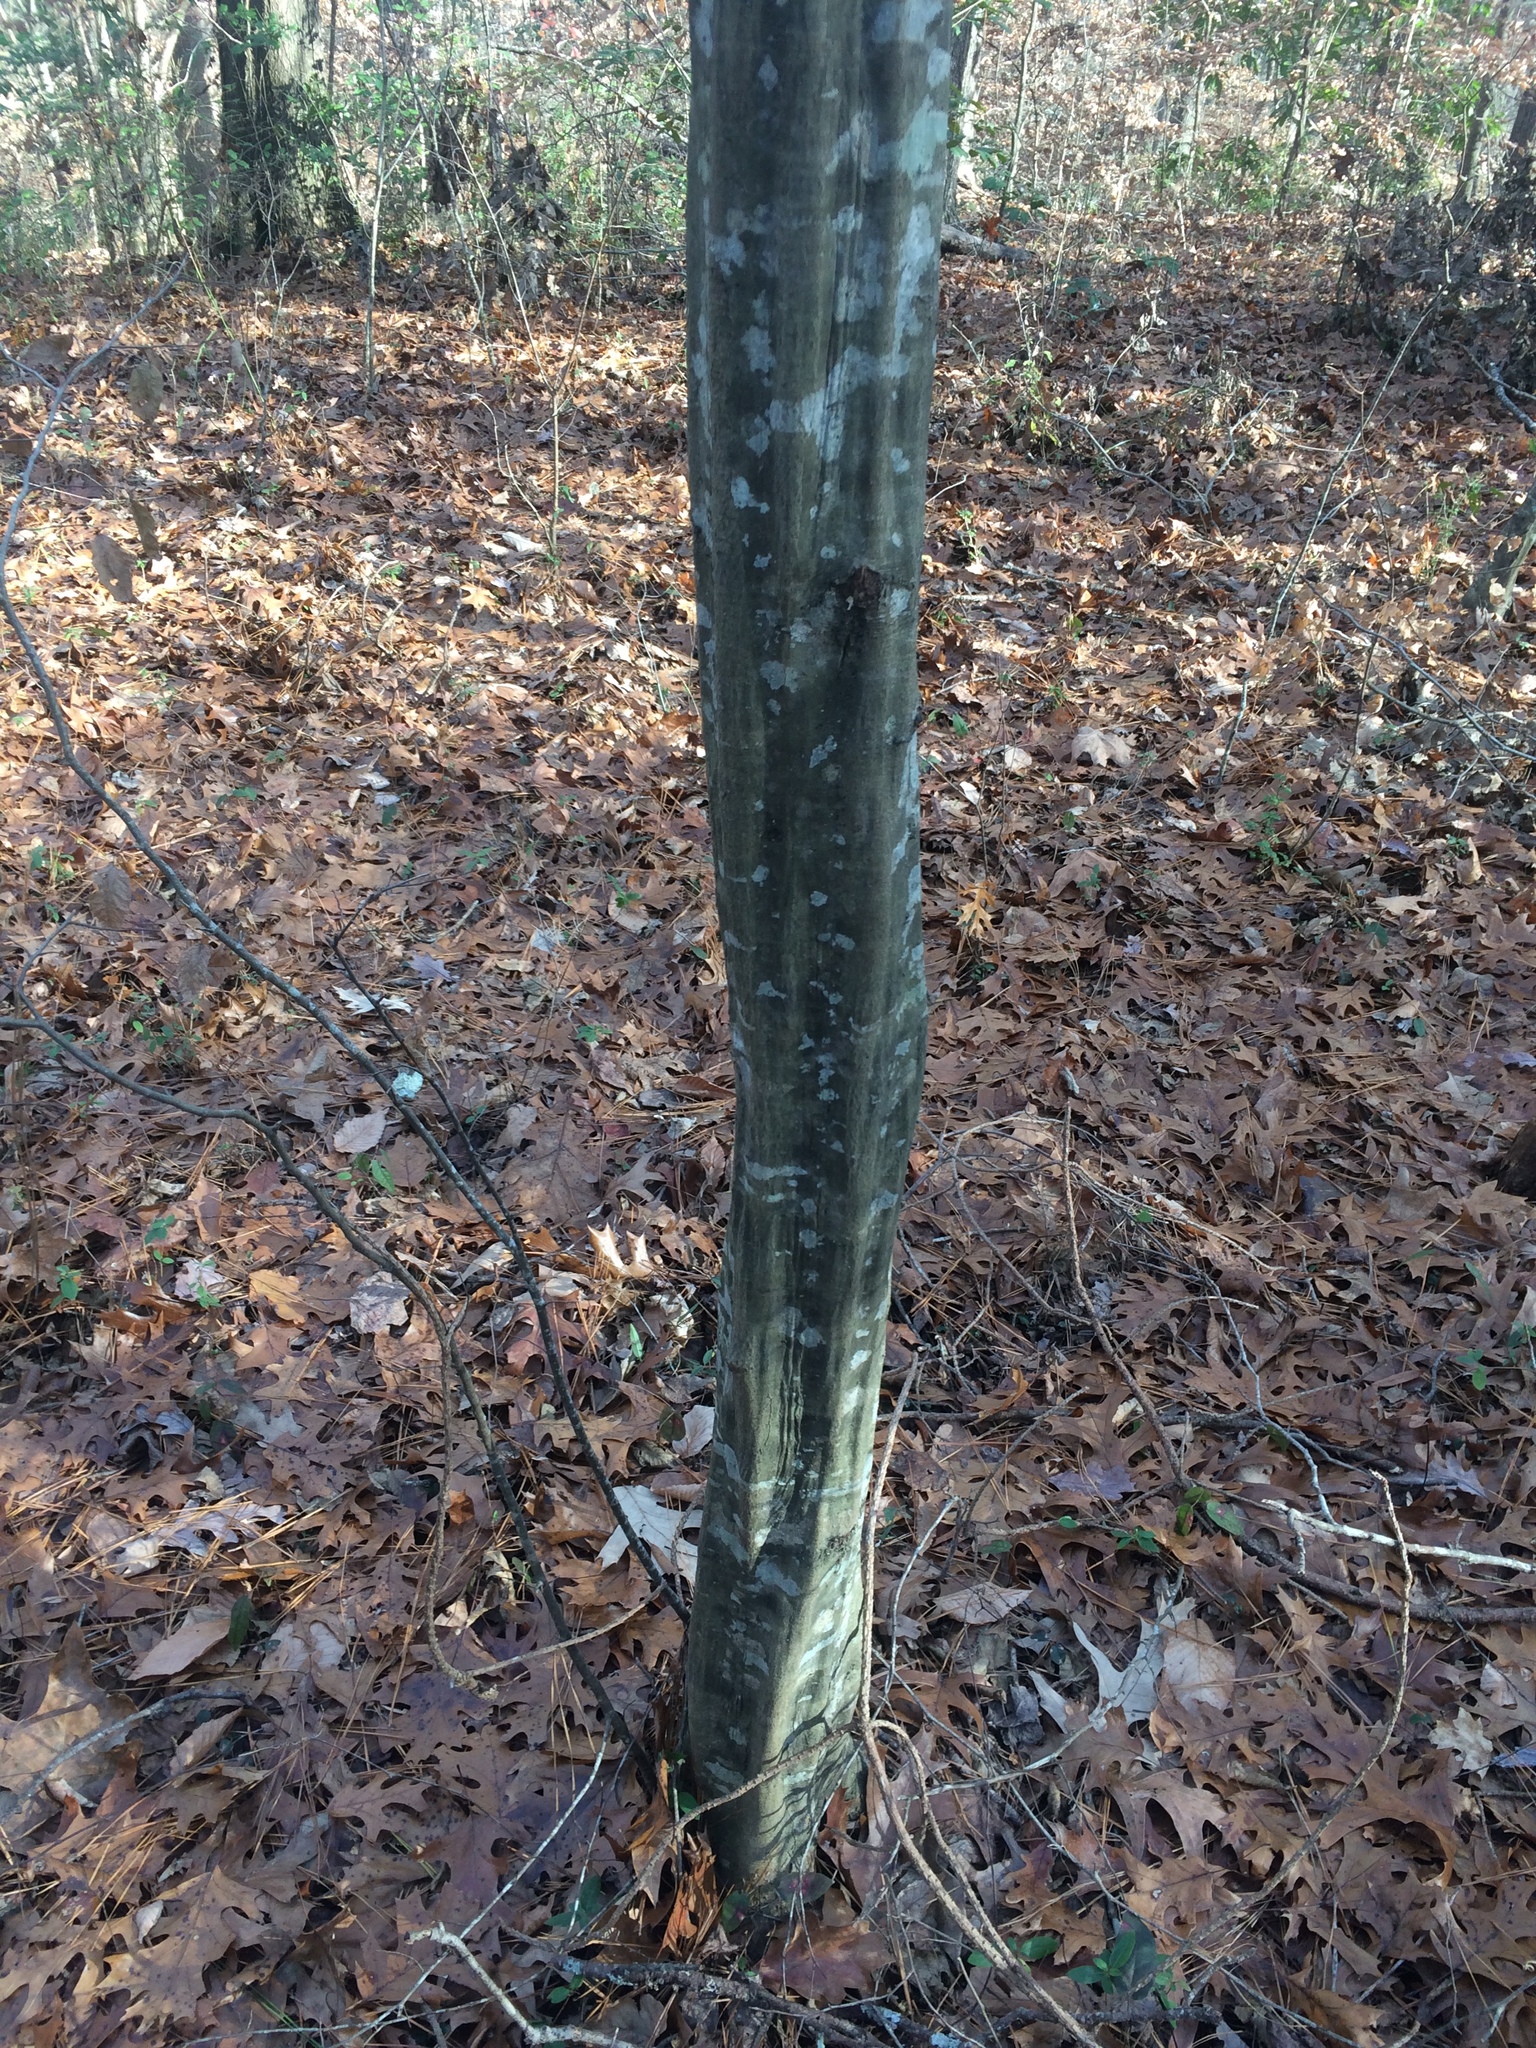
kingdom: Plantae
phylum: Tracheophyta
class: Magnoliopsida
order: Fagales
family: Betulaceae
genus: Carpinus
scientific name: Carpinus caroliniana
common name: American hornbeam
